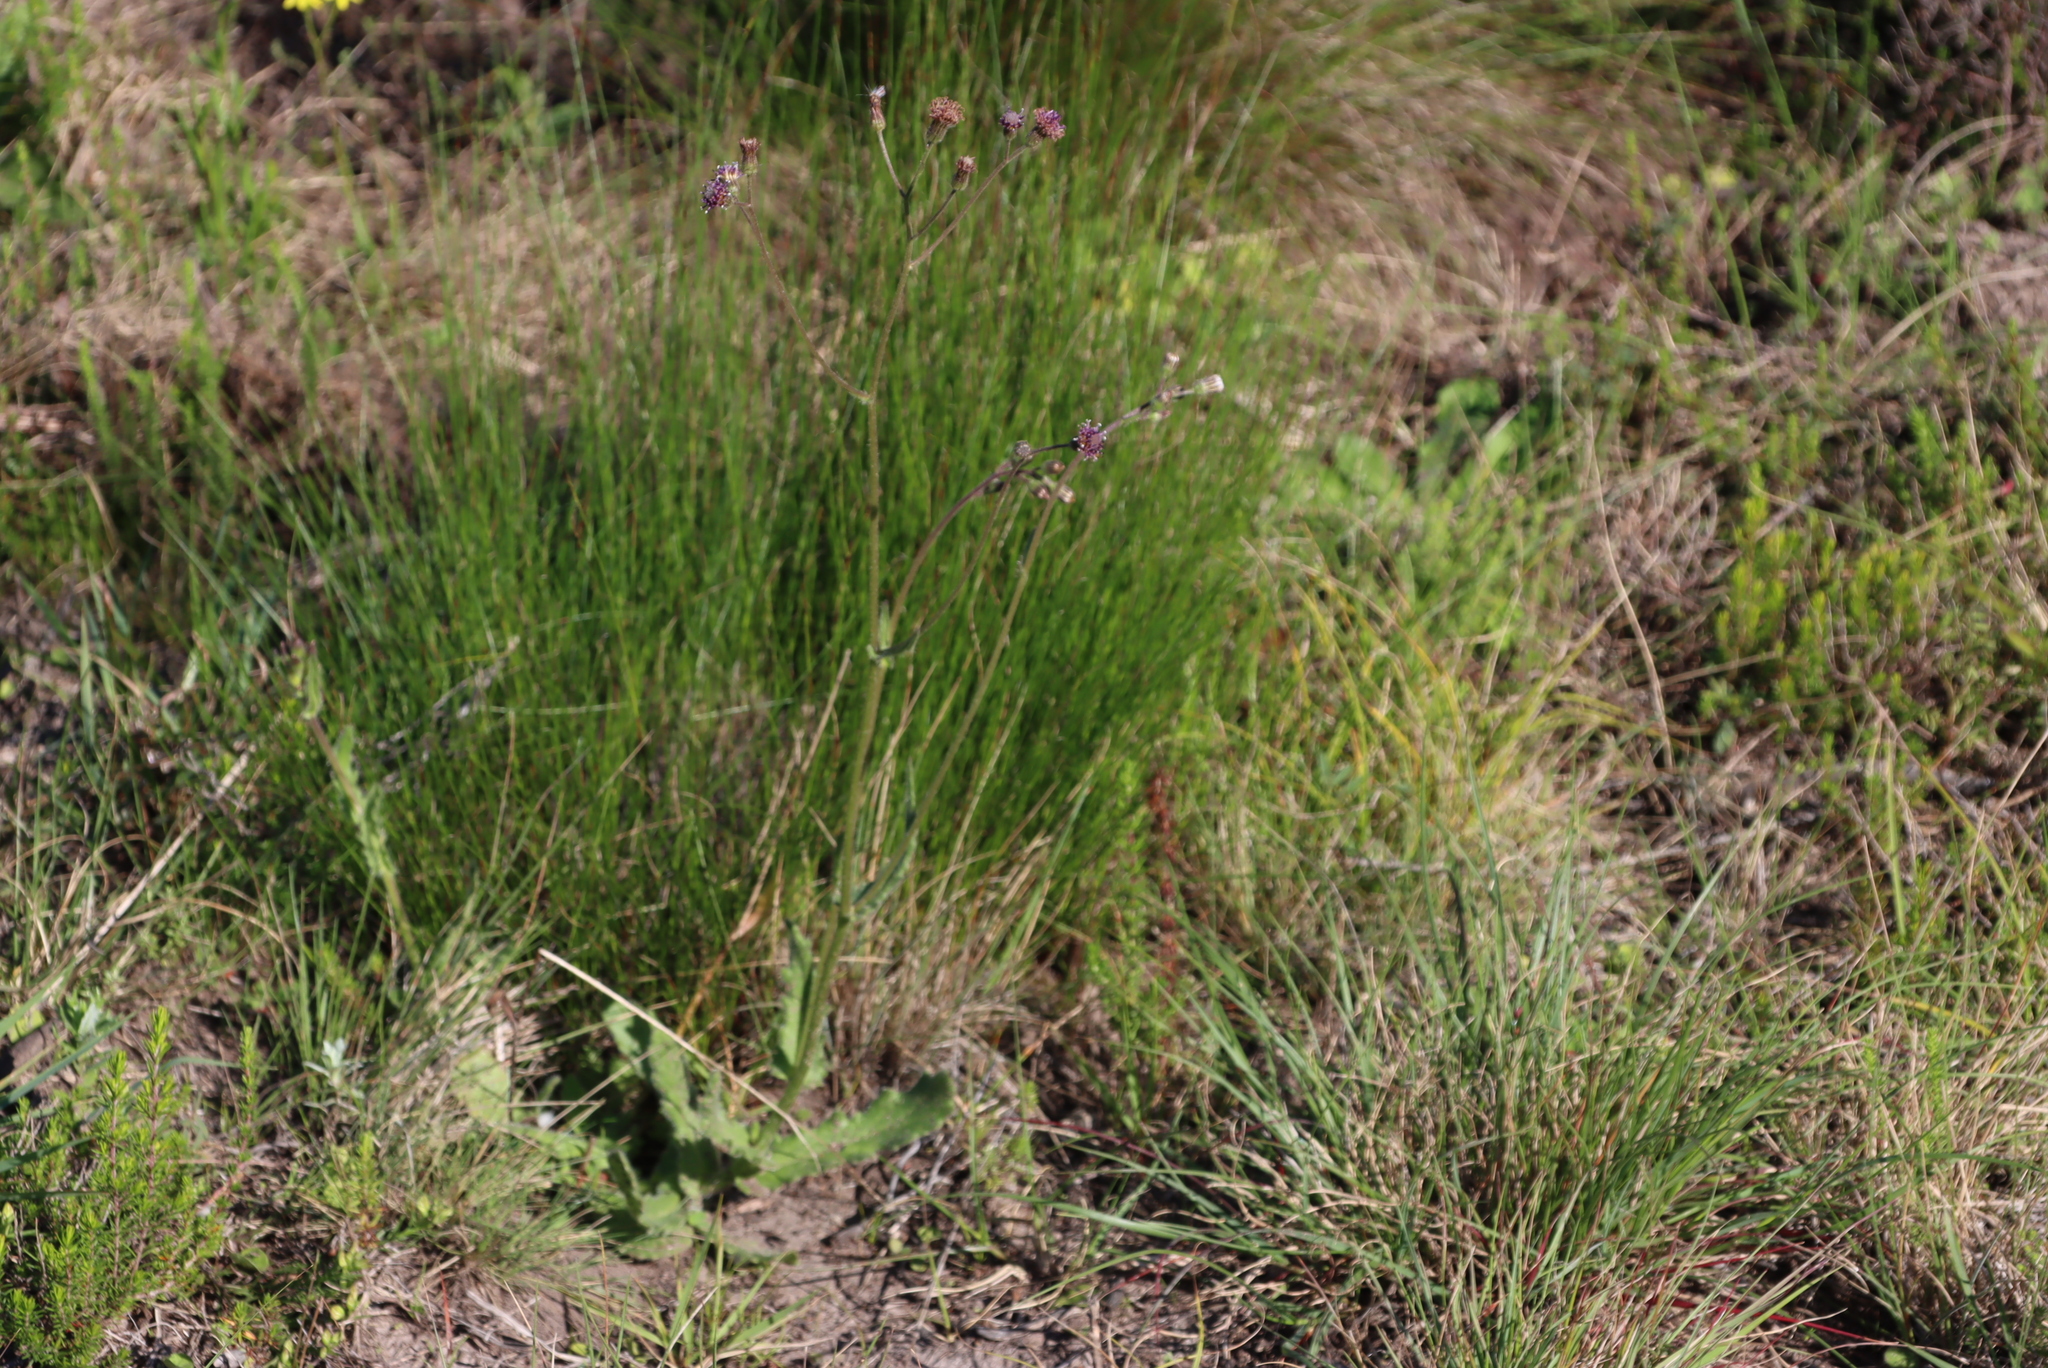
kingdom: Plantae
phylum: Tracheophyta
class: Magnoliopsida
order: Asterales
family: Asteraceae
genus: Senecio
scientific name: Senecio erubescens
